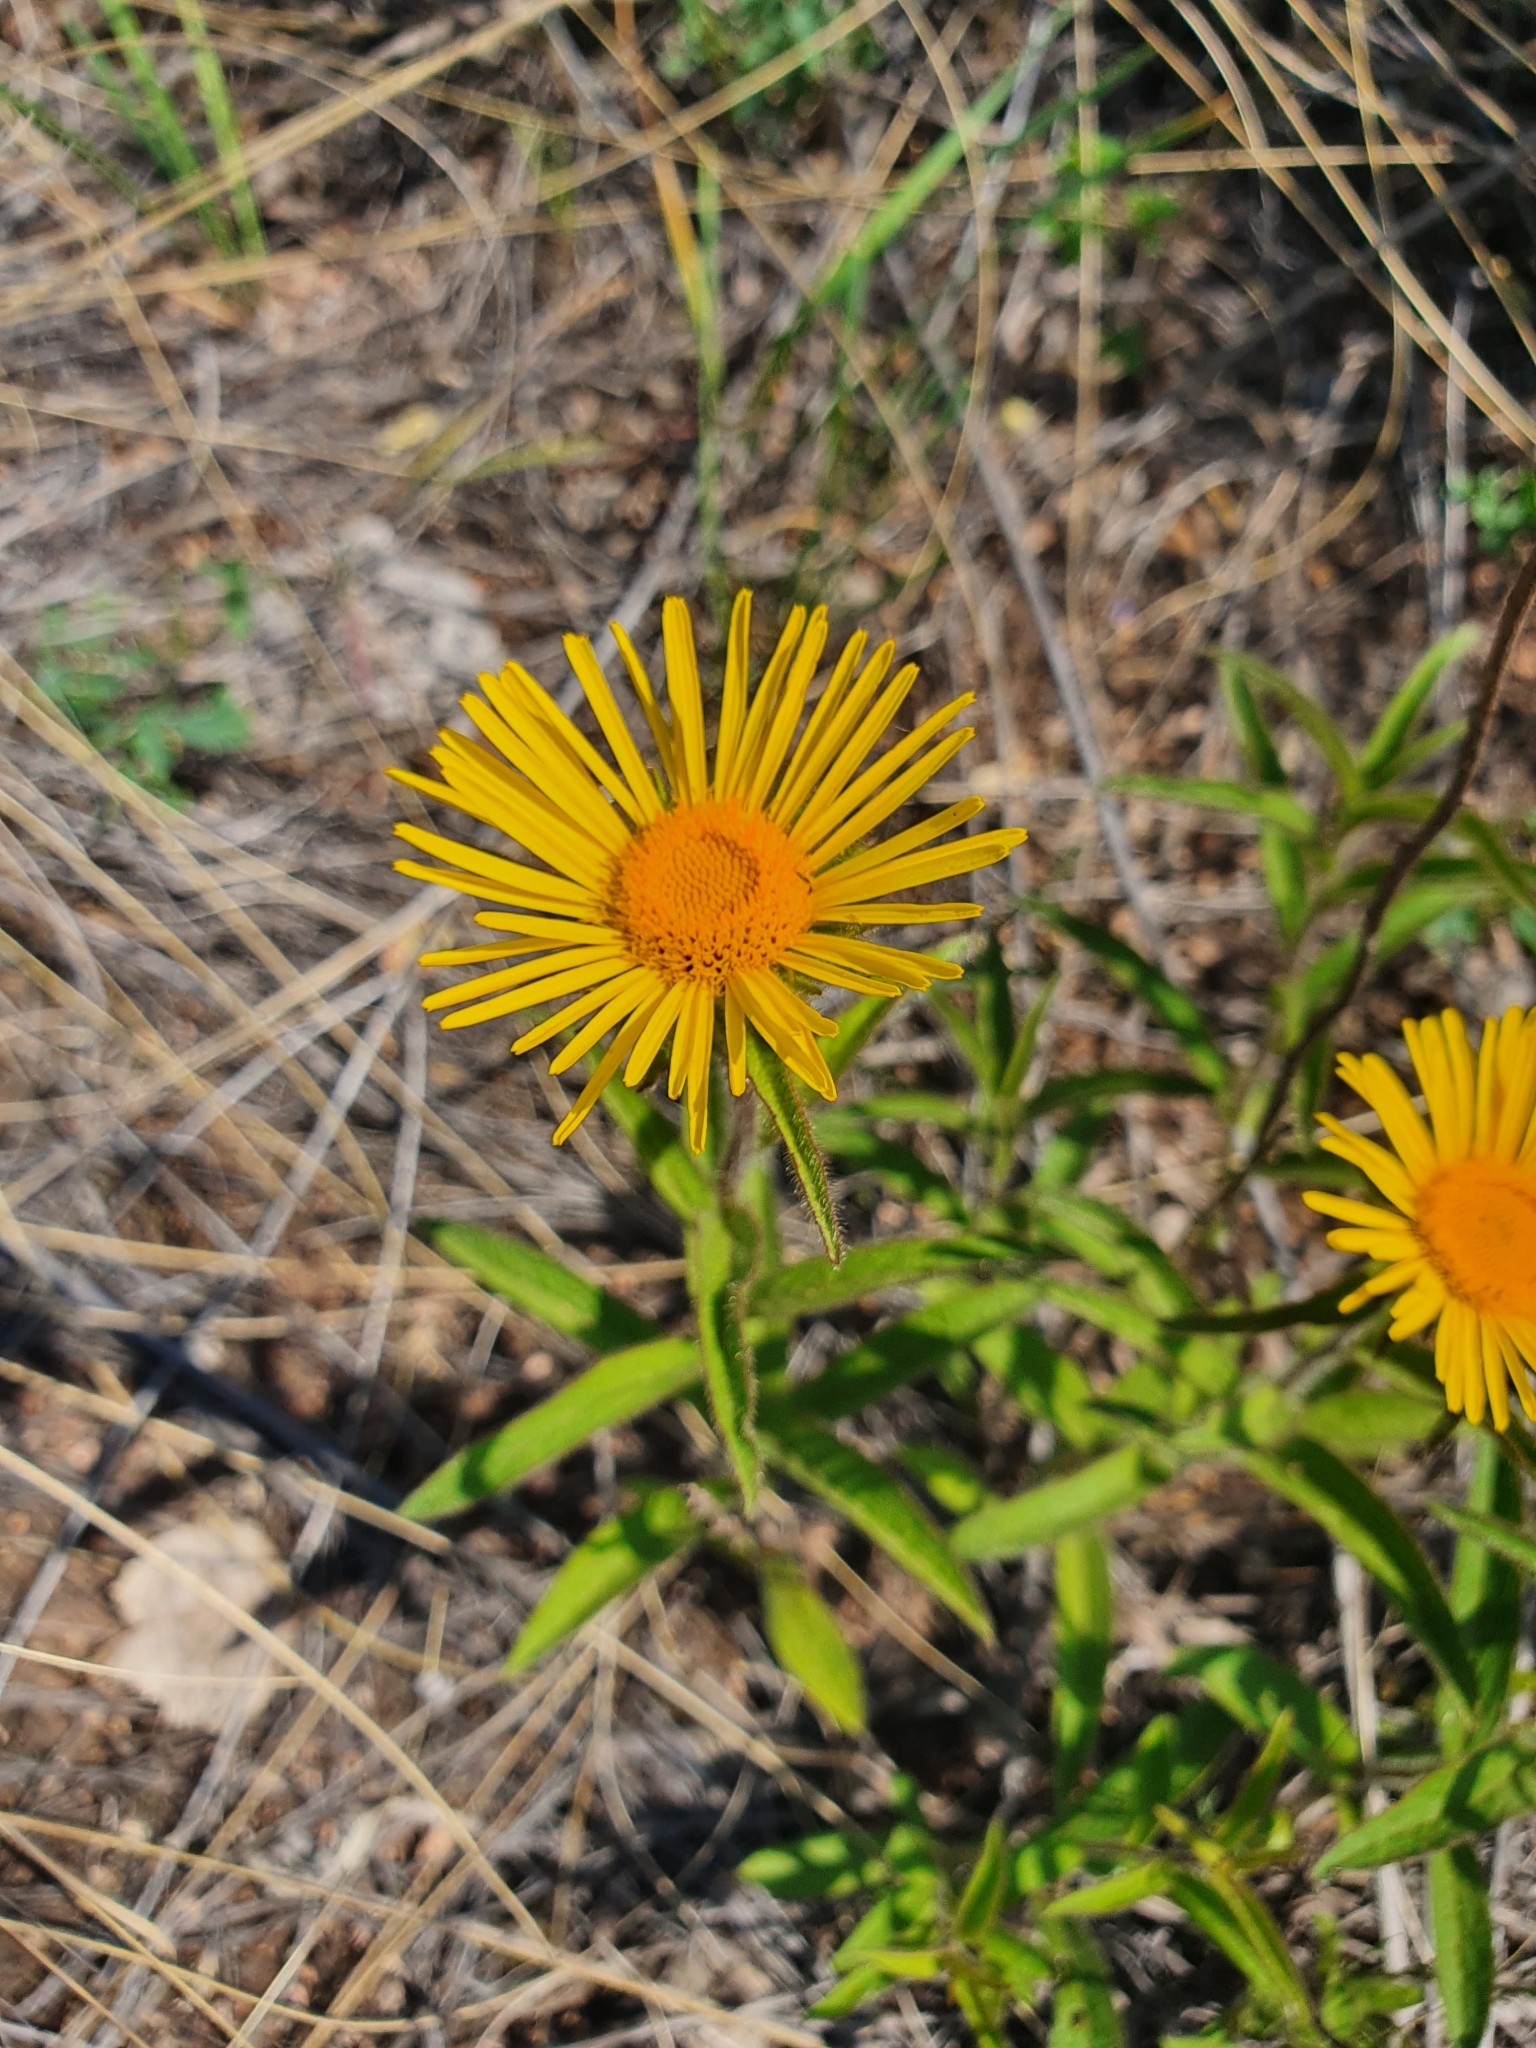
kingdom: Plantae
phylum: Tracheophyta
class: Magnoliopsida
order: Asterales
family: Asteraceae
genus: Pentanema
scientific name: Pentanema hirtum
